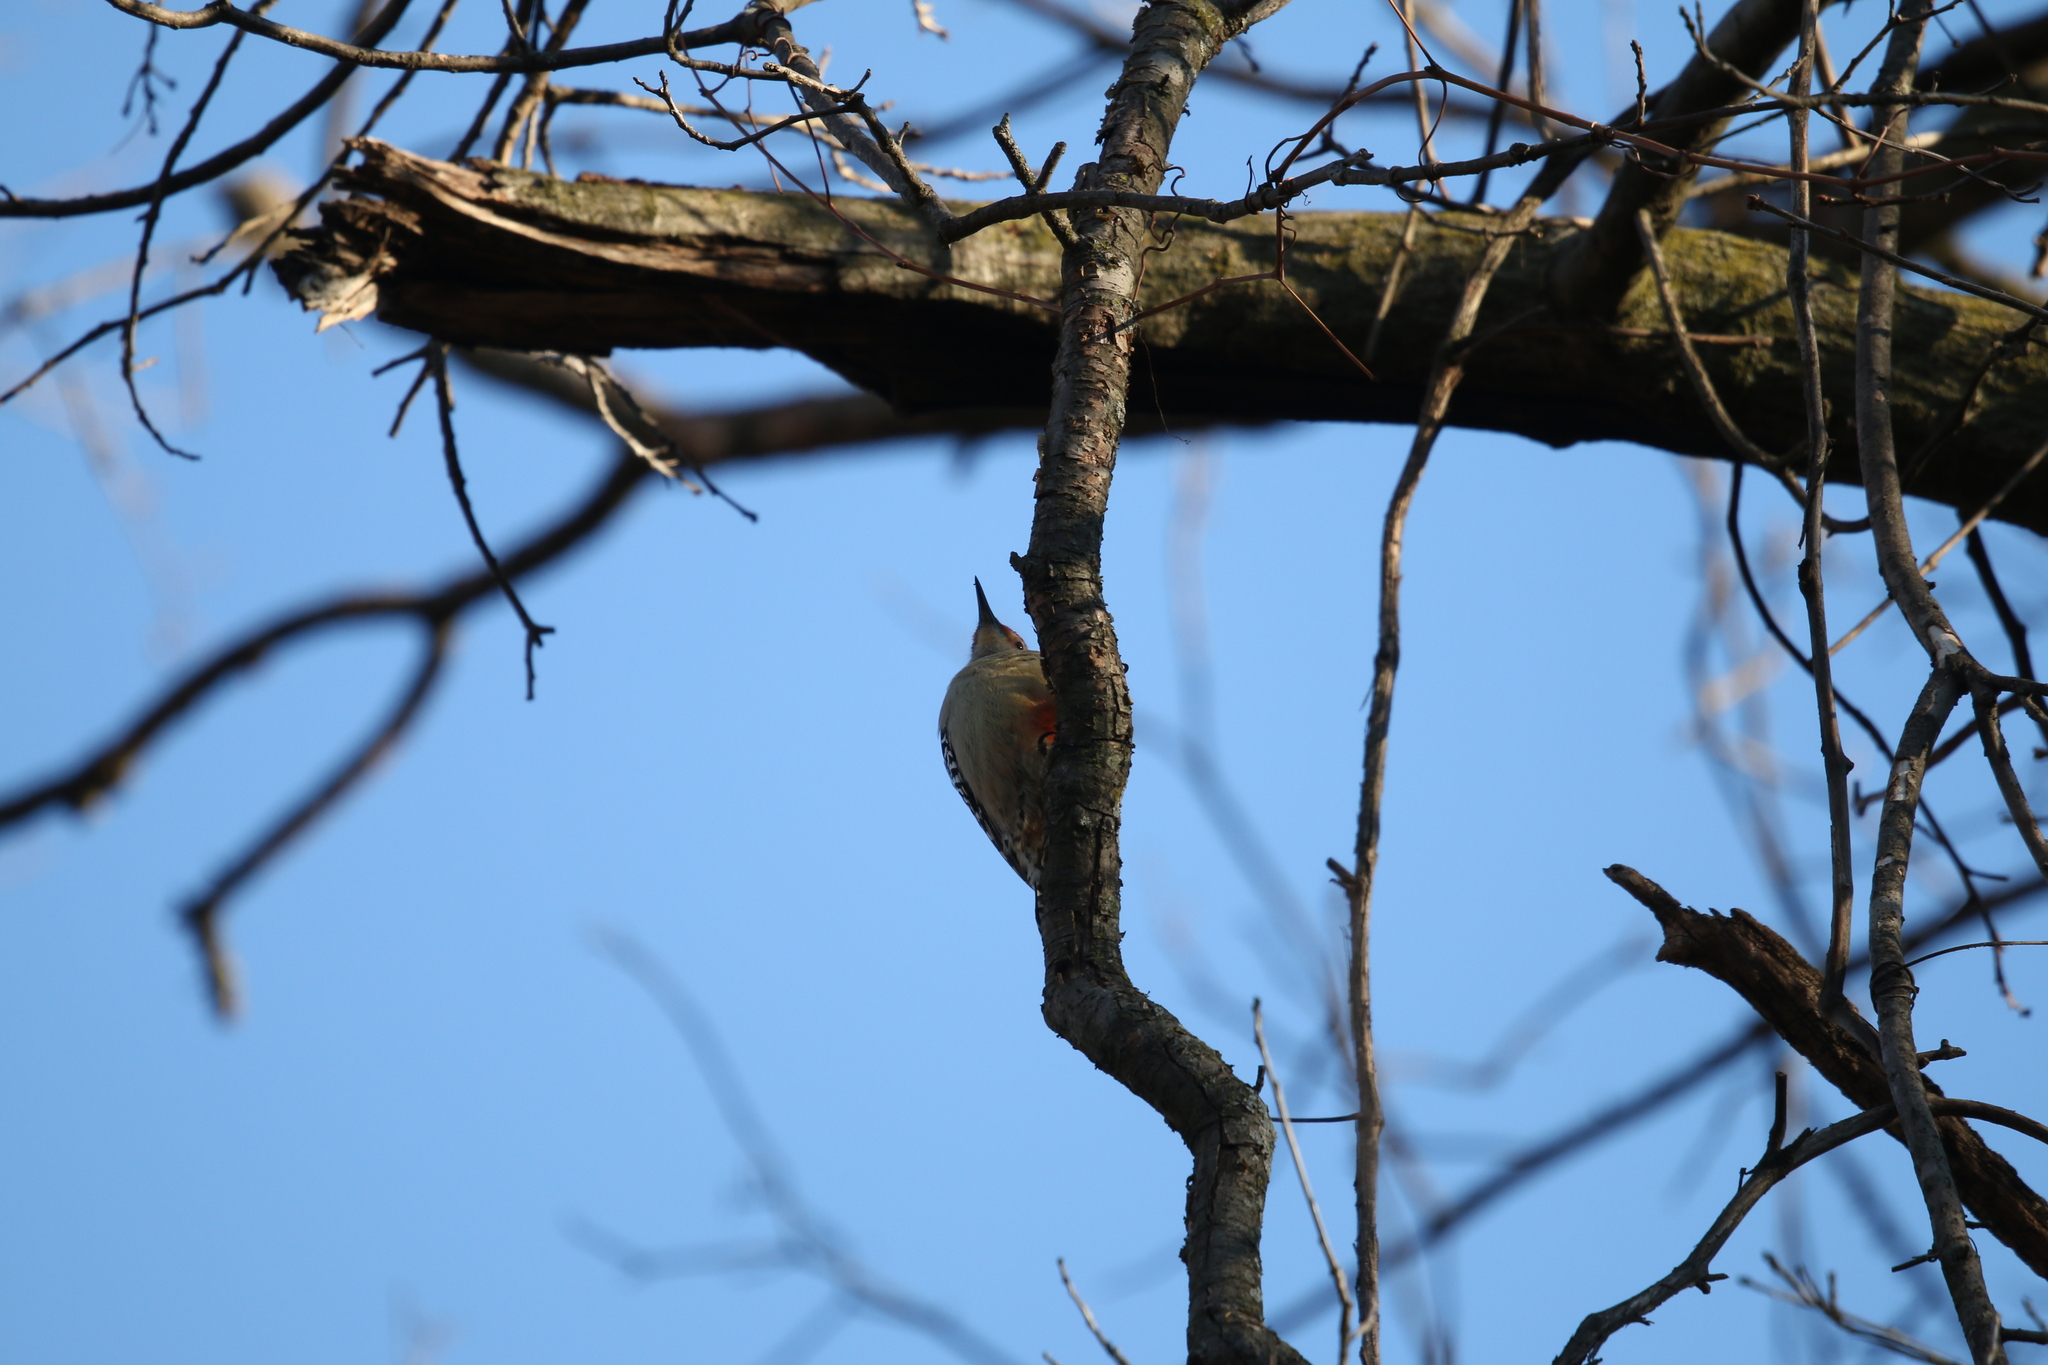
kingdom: Animalia
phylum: Chordata
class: Aves
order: Piciformes
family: Picidae
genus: Melanerpes
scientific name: Melanerpes carolinus
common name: Red-bellied woodpecker
